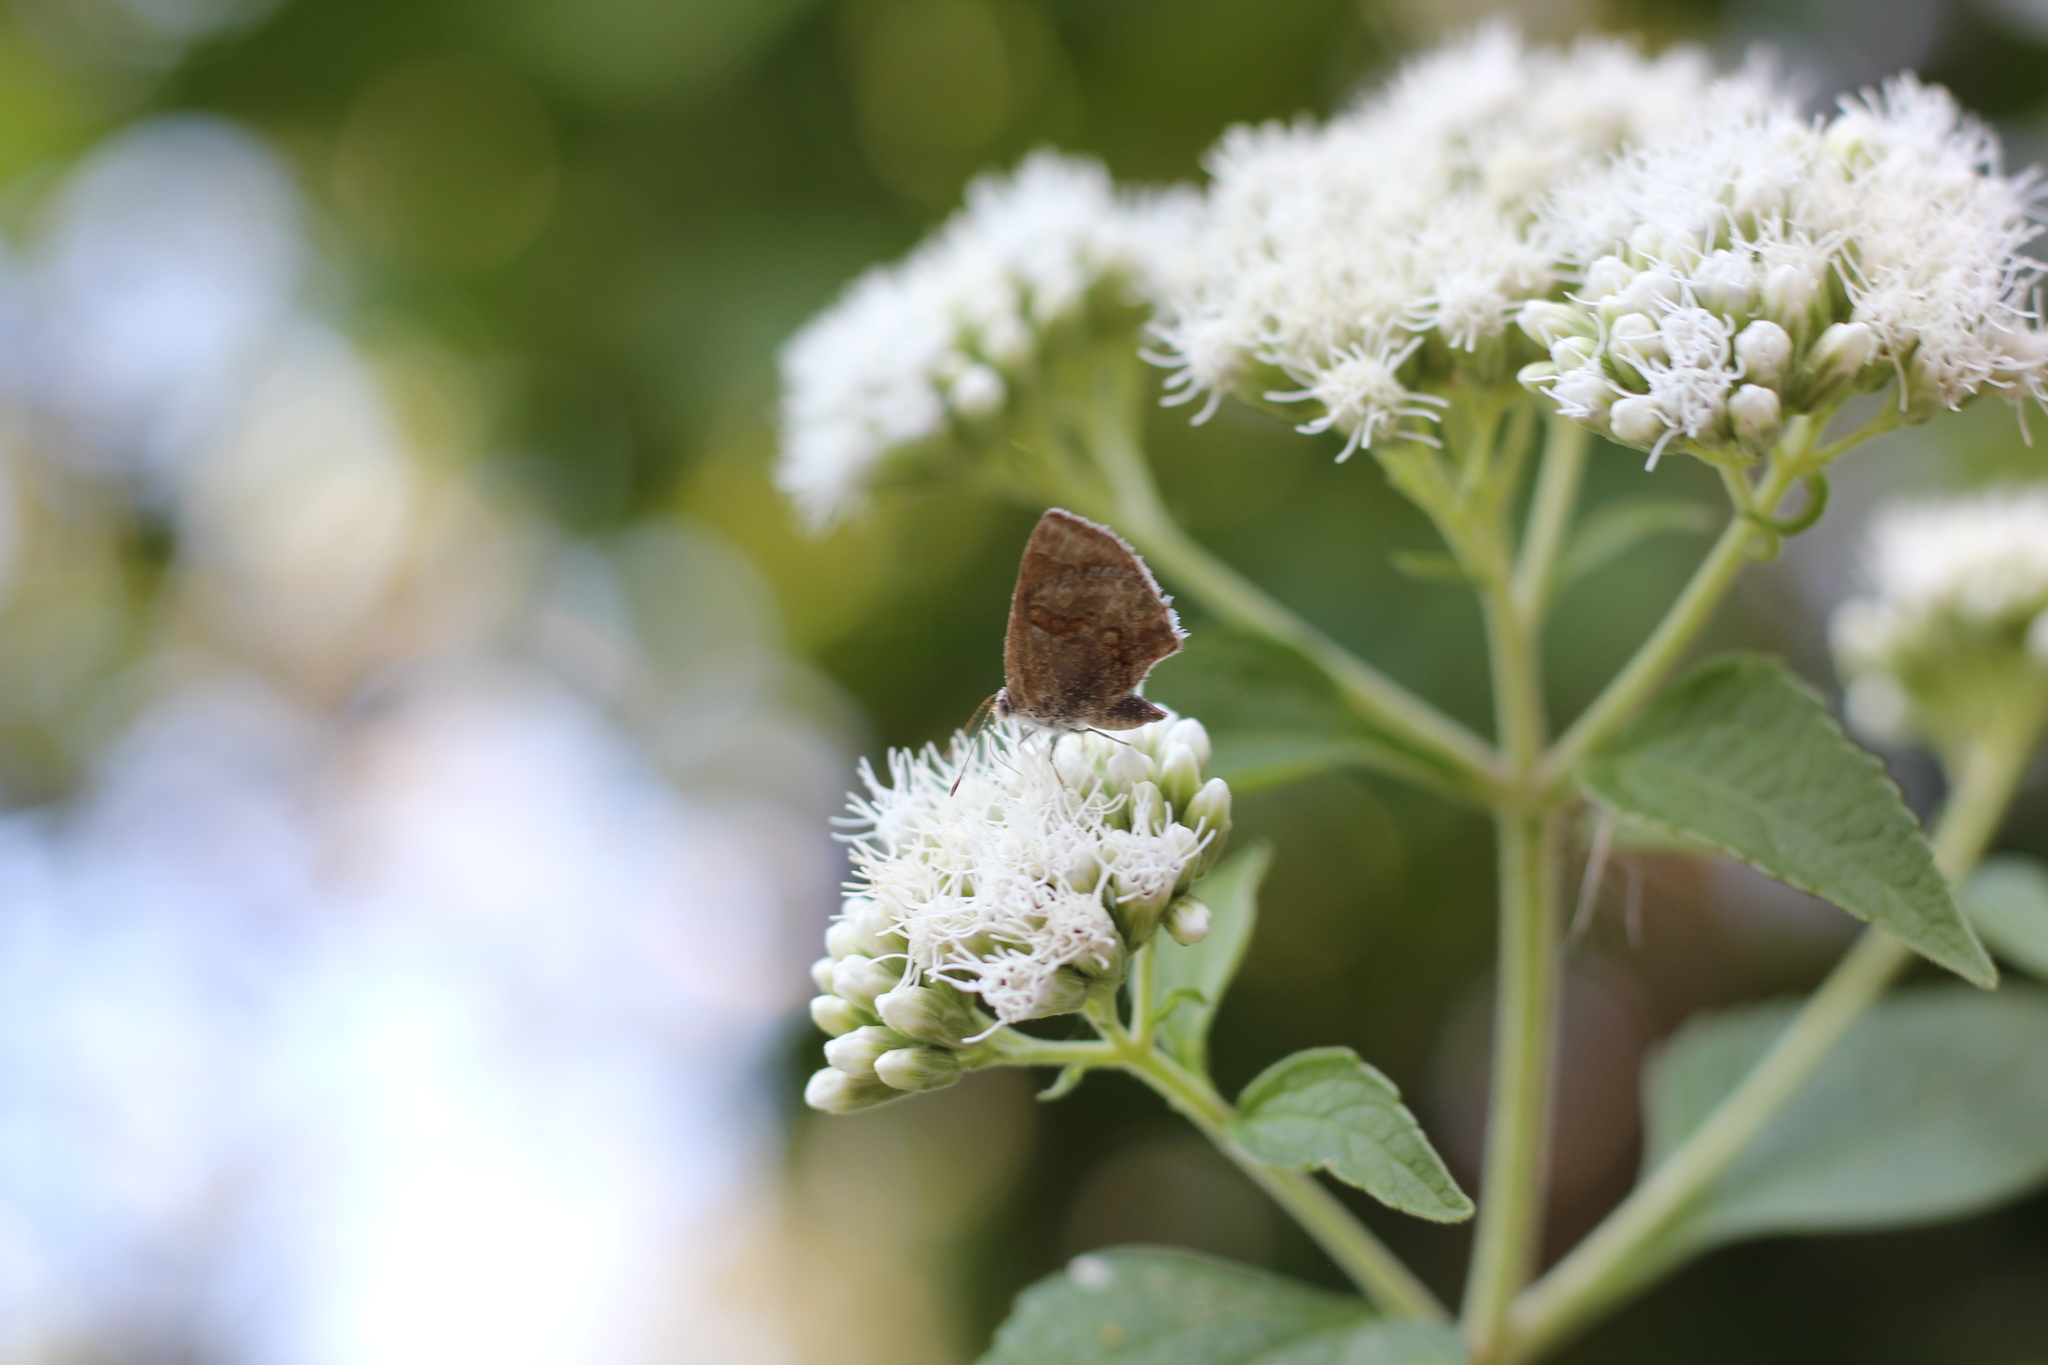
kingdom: Animalia
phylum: Arthropoda
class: Insecta
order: Lepidoptera
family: Lycaenidae
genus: Strymon
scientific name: Strymon bazochii
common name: Lantana scrub-hairstreak
